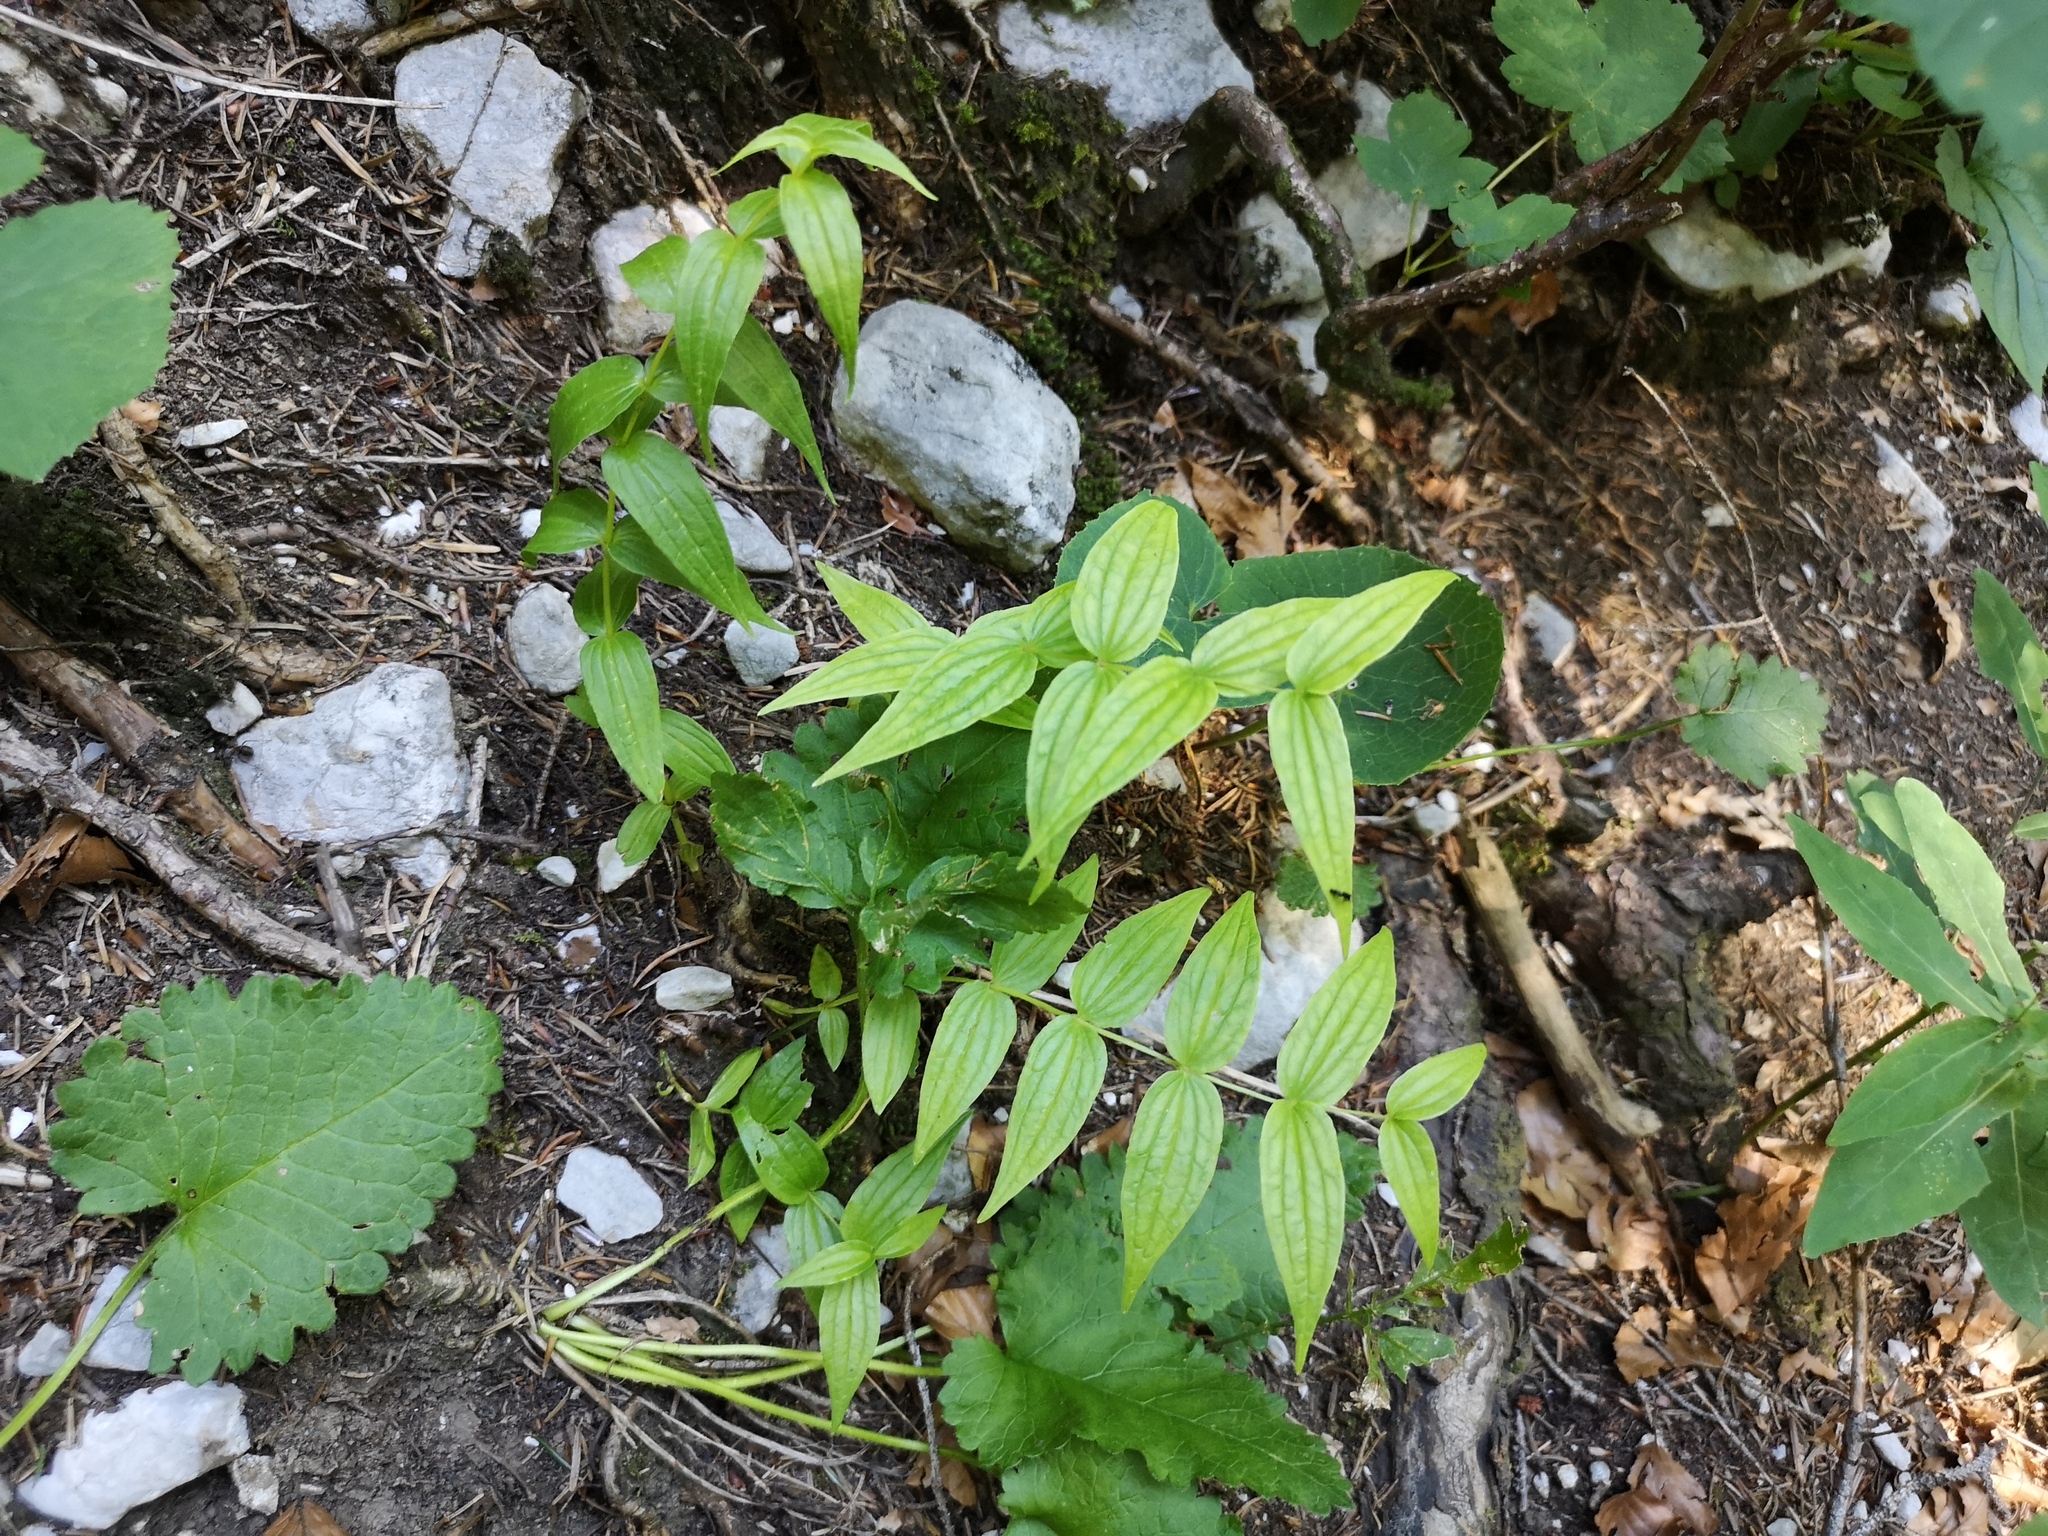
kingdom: Plantae
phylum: Tracheophyta
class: Magnoliopsida
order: Gentianales
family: Gentianaceae
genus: Gentiana
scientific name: Gentiana asclepiadea
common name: Willow gentian
